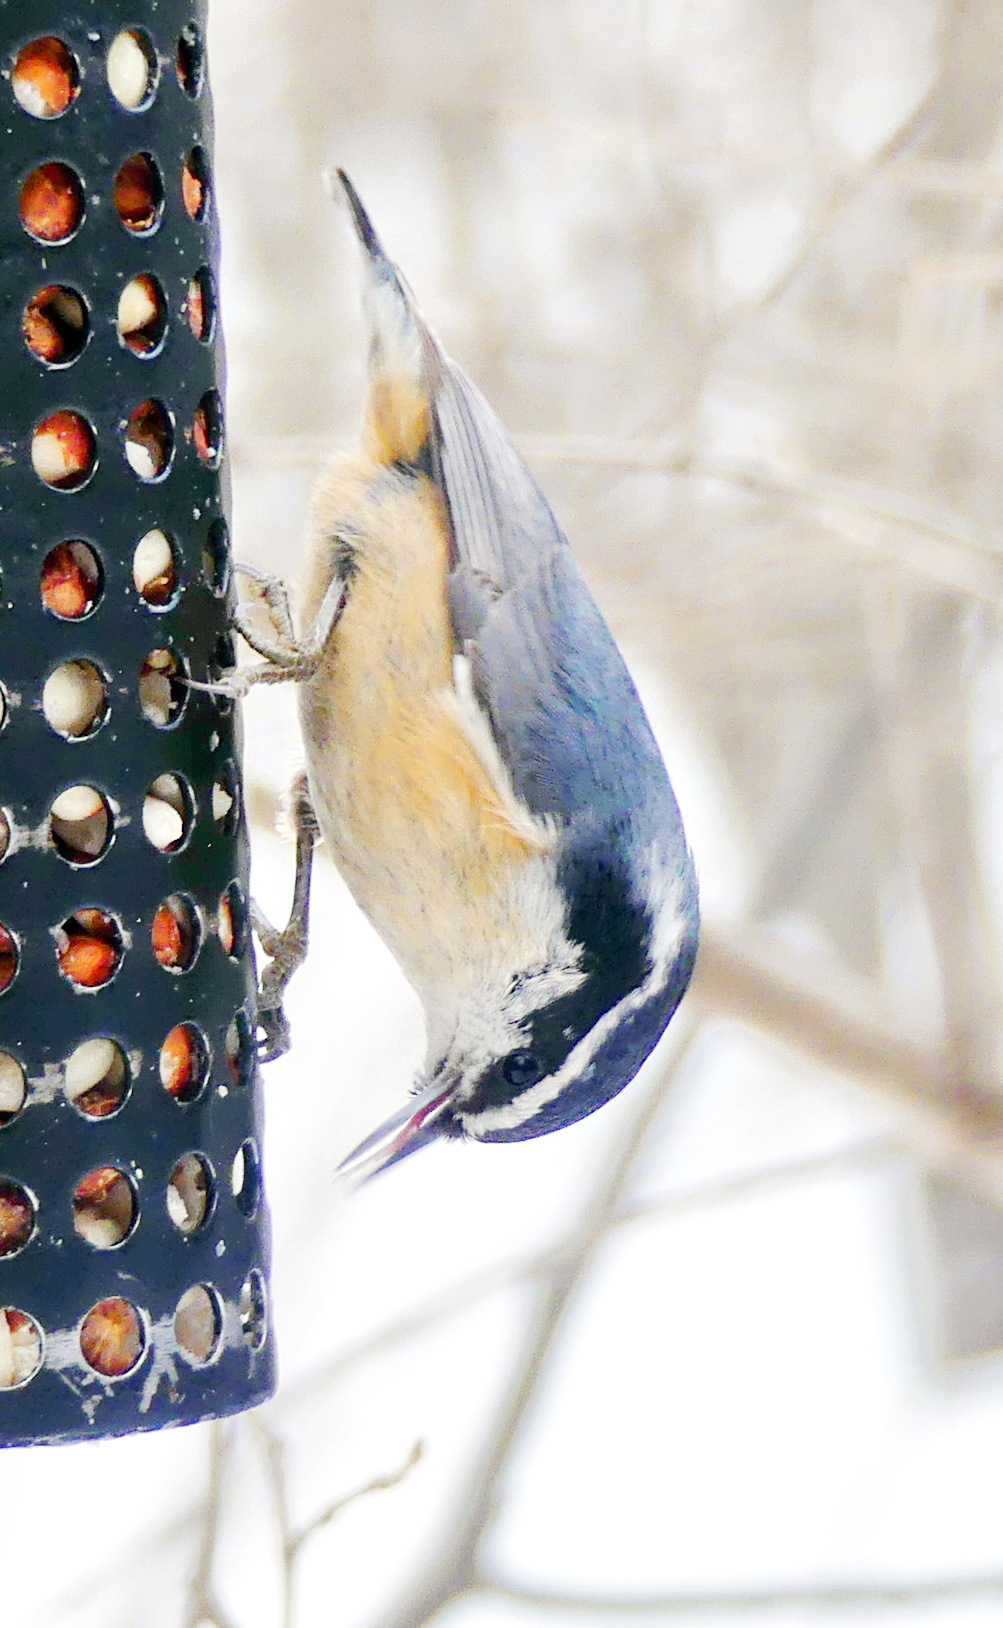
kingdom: Animalia
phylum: Chordata
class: Aves
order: Passeriformes
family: Sittidae
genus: Sitta
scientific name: Sitta canadensis
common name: Red-breasted nuthatch
